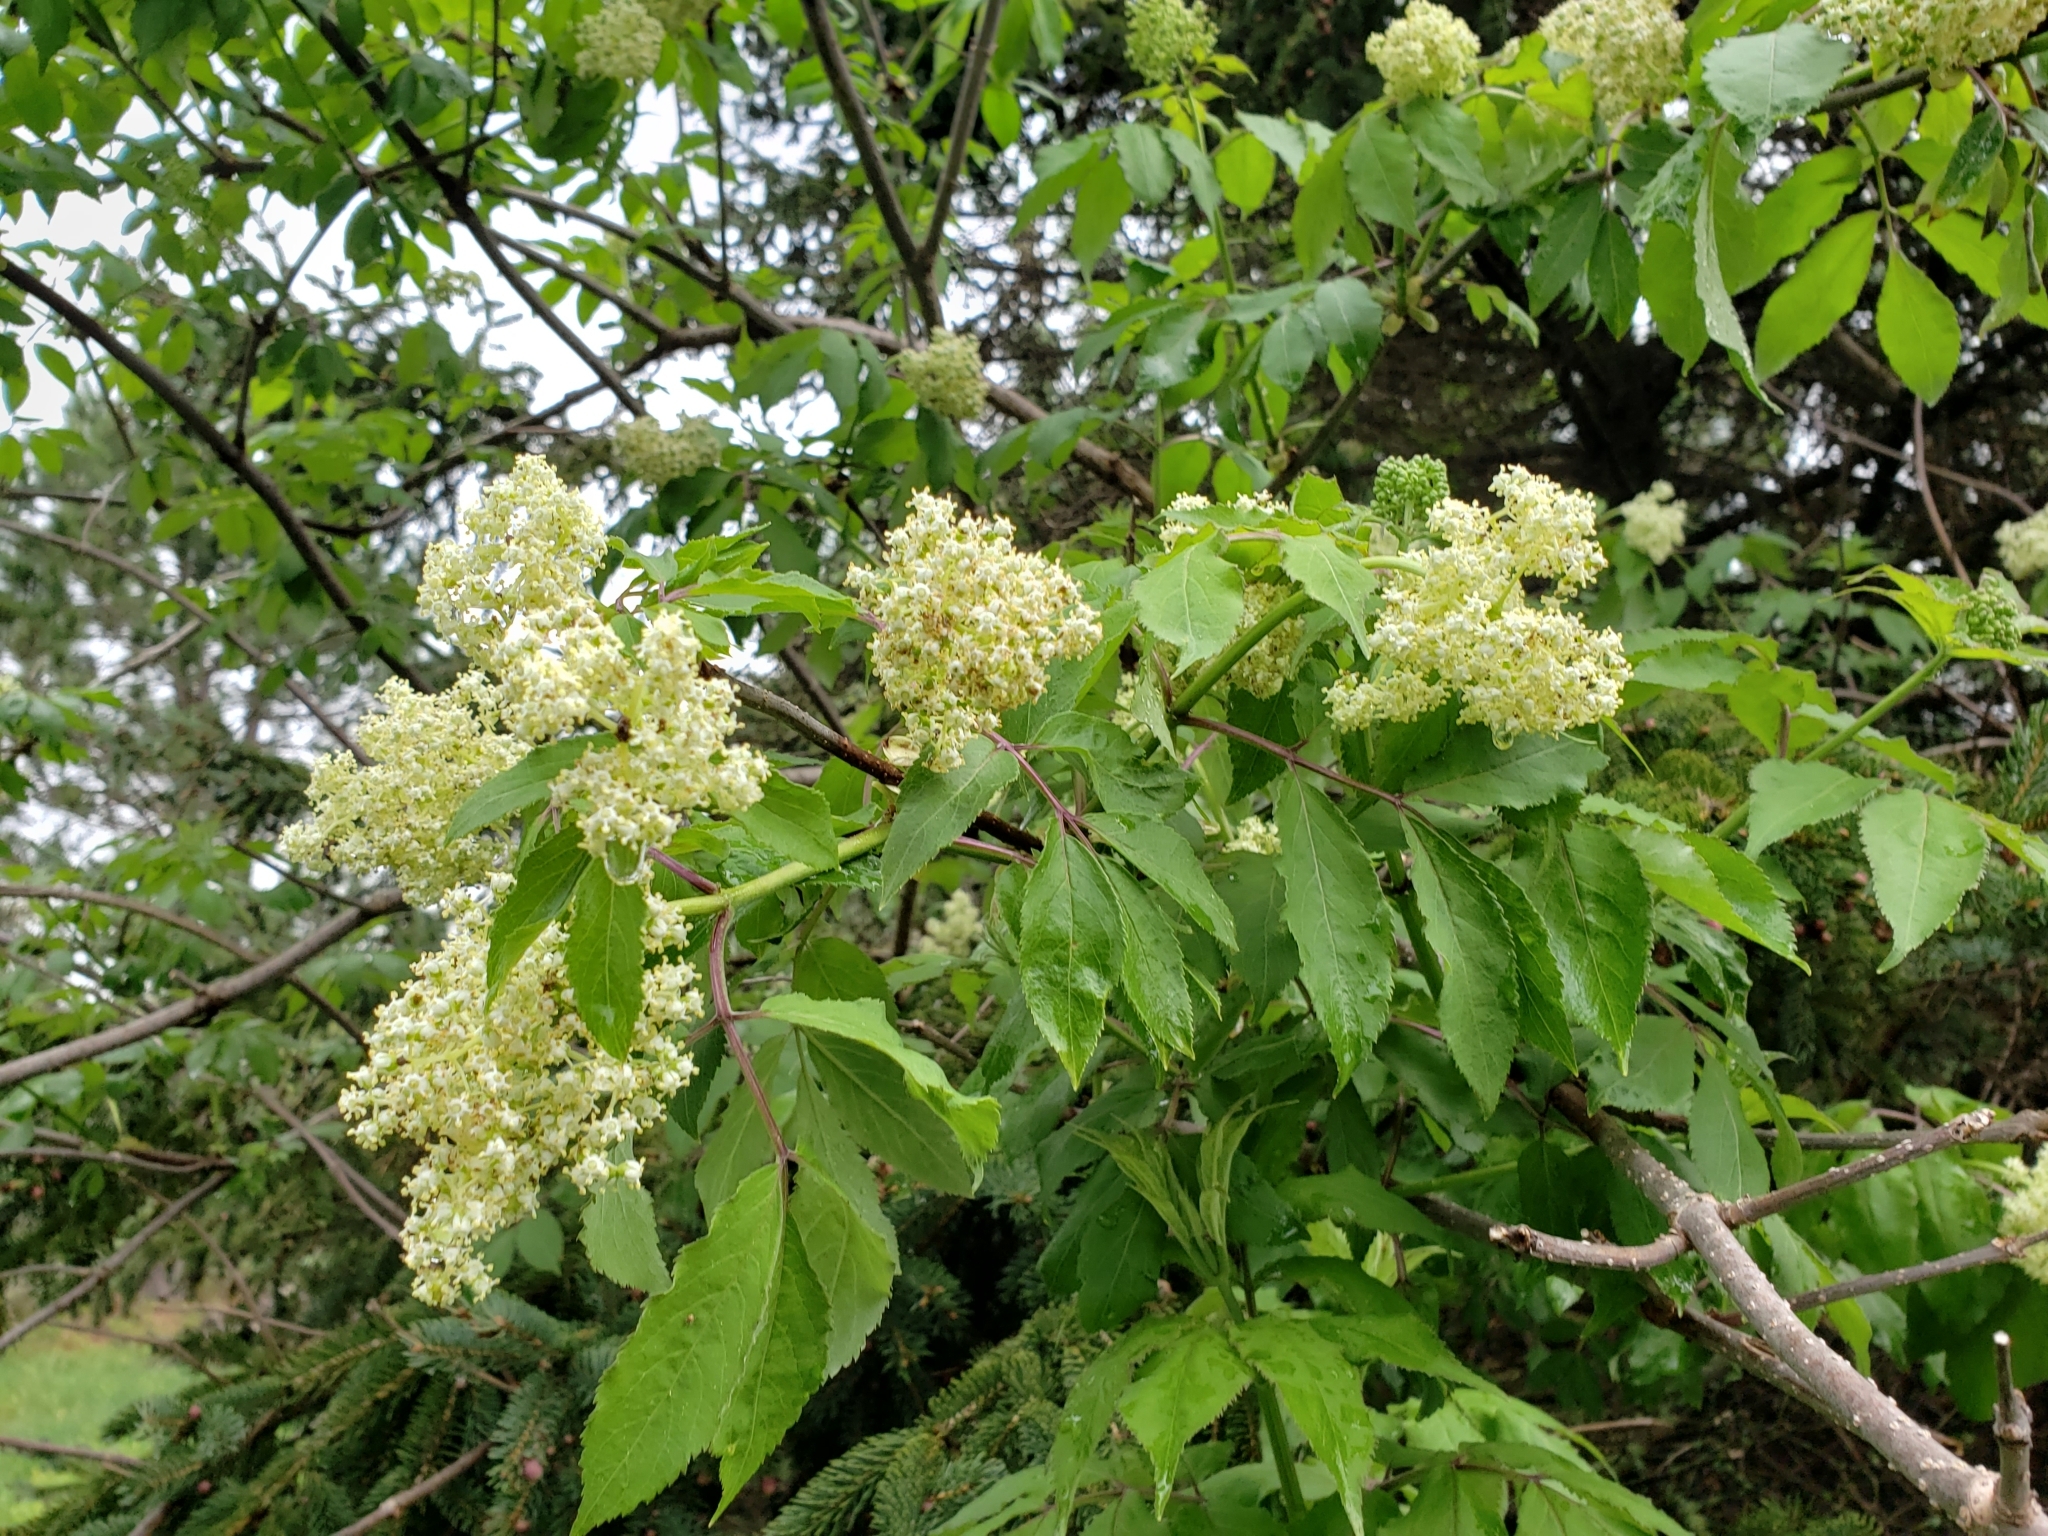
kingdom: Plantae
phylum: Tracheophyta
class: Magnoliopsida
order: Dipsacales
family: Viburnaceae
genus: Sambucus
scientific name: Sambucus racemosa
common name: Red-berried elder
